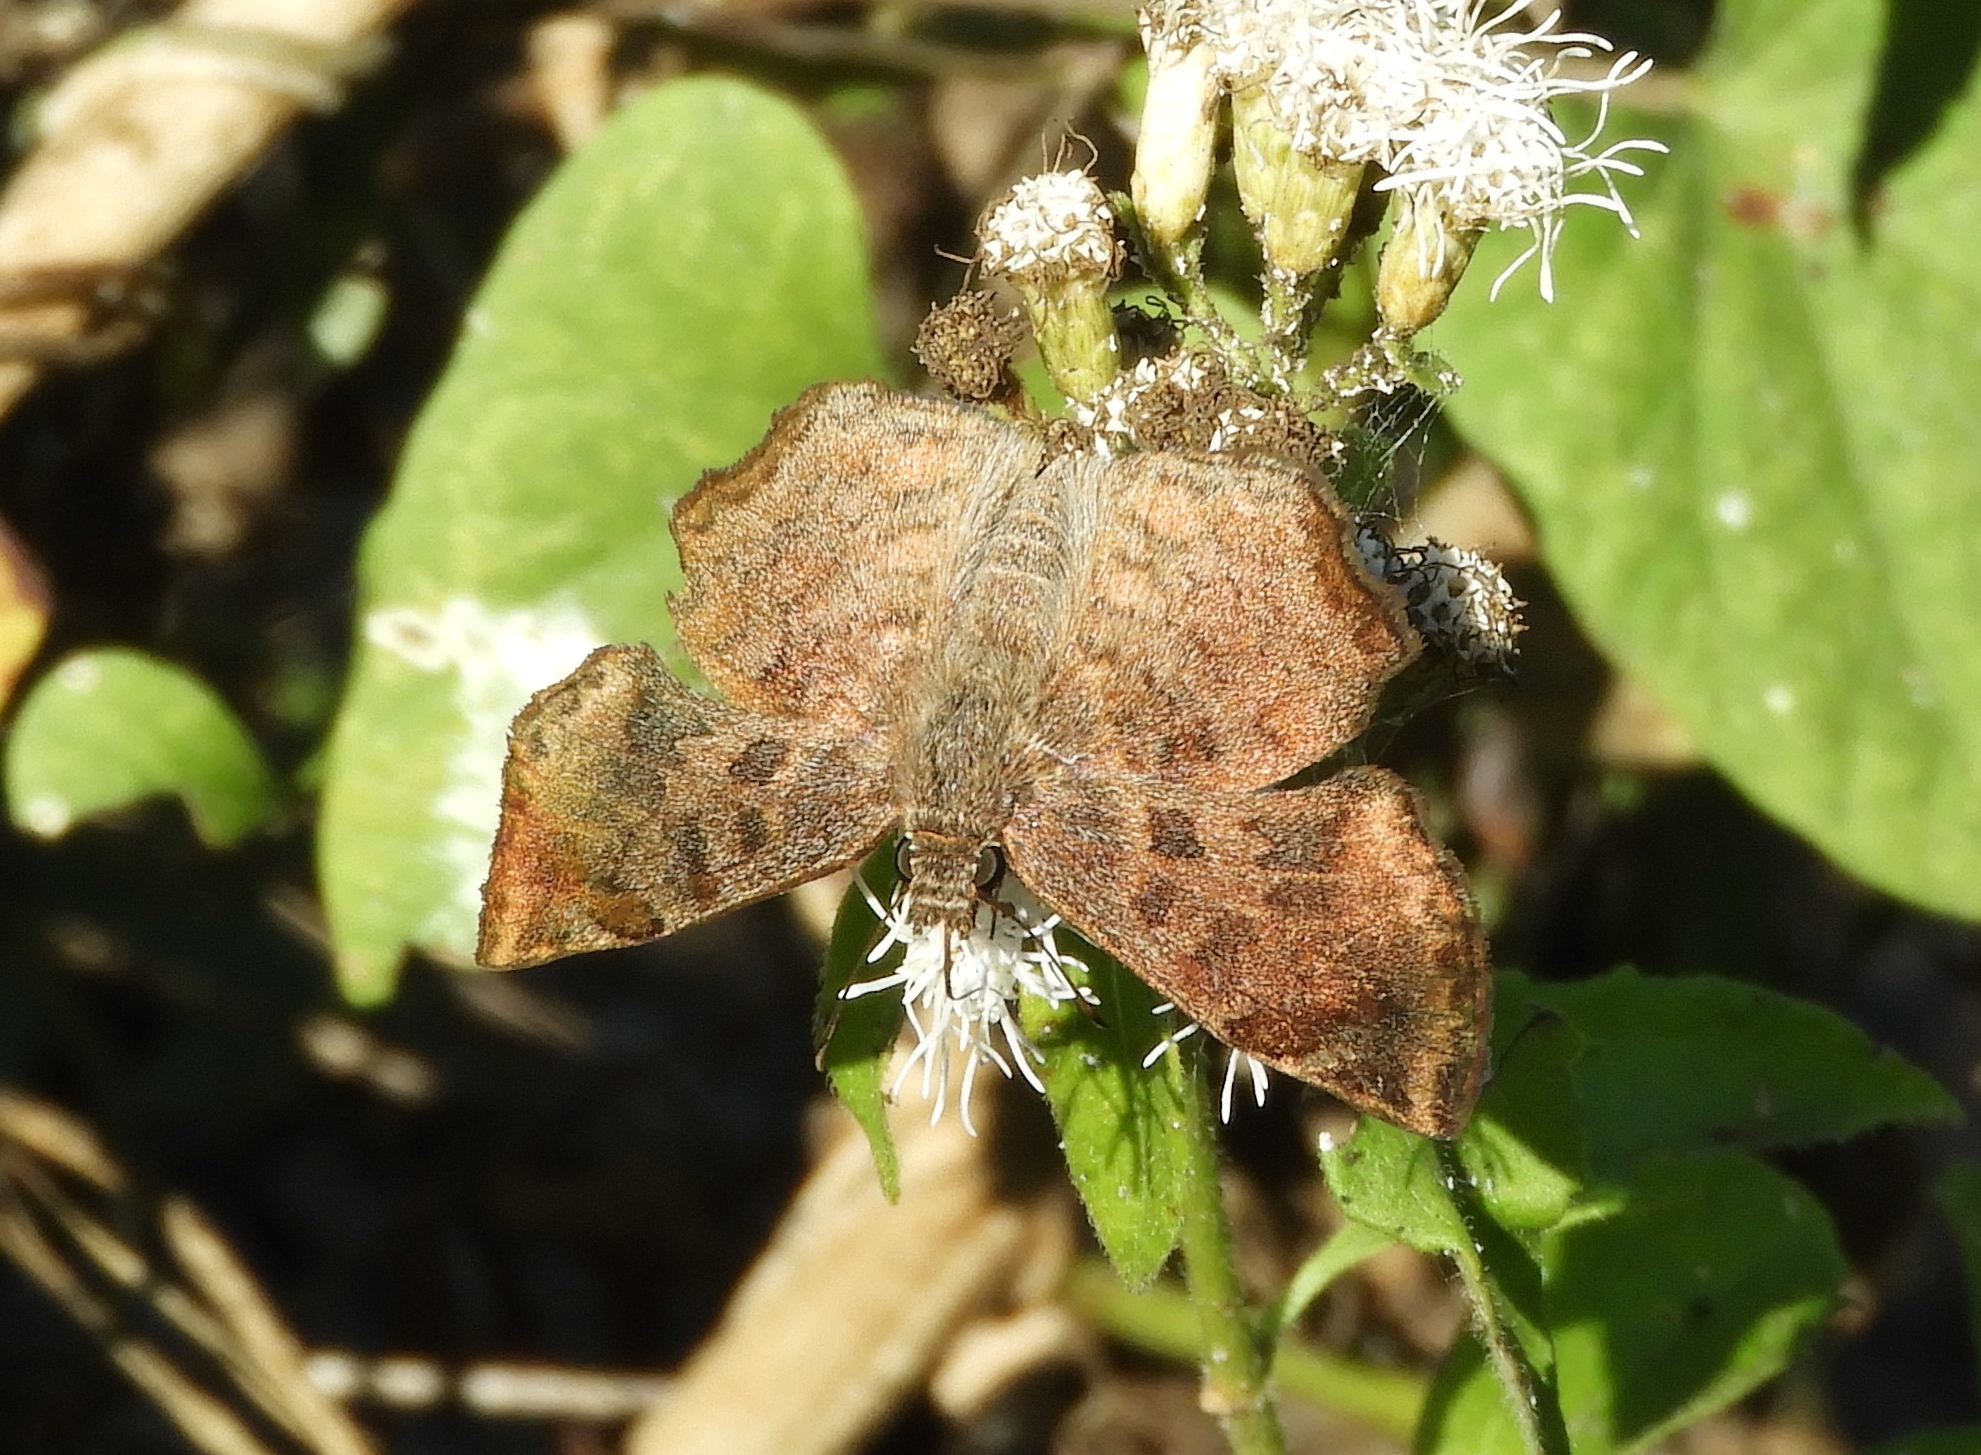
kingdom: Animalia
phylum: Arthropoda
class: Insecta
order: Lepidoptera
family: Hesperiidae
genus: Antigonus
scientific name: Antigonus erosus
